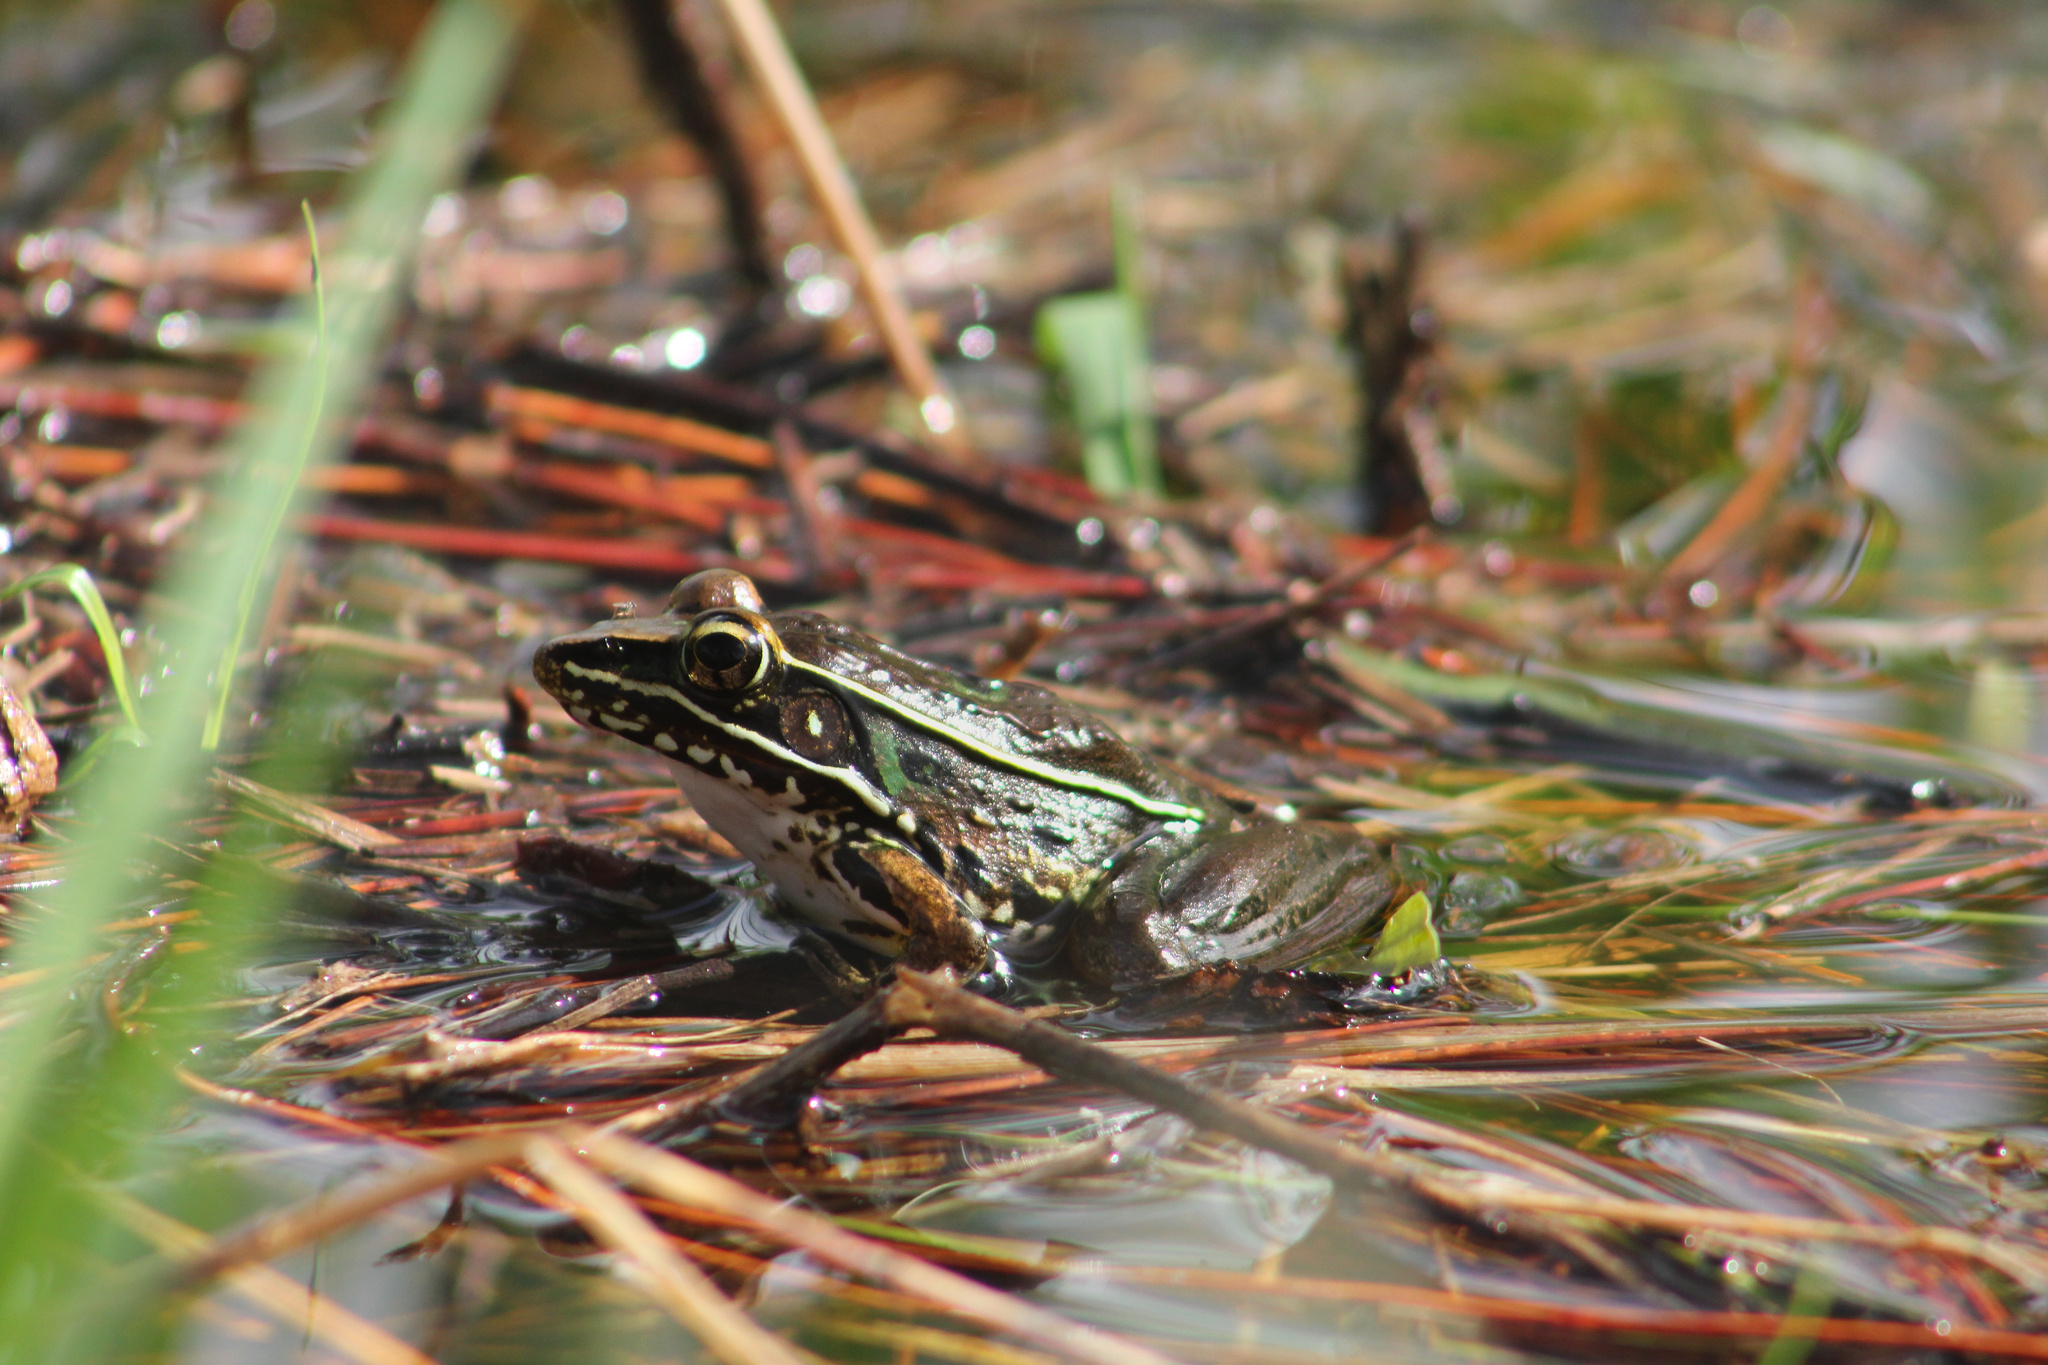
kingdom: Animalia
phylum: Chordata
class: Amphibia
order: Anura
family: Ranidae
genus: Lithobates
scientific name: Lithobates sphenocephalus
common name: Southern leopard frog
